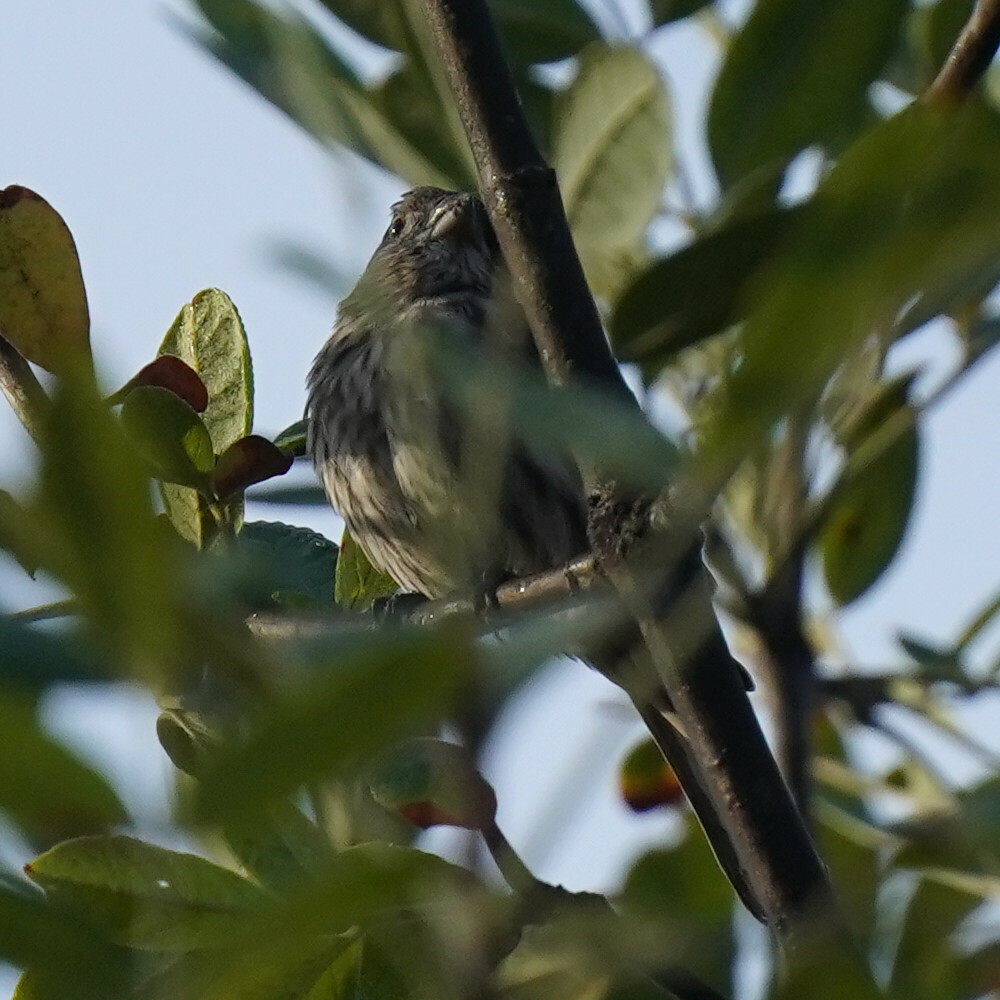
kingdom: Animalia
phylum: Chordata
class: Aves
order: Passeriformes
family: Fringillidae
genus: Haemorhous
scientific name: Haemorhous mexicanus
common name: House finch
